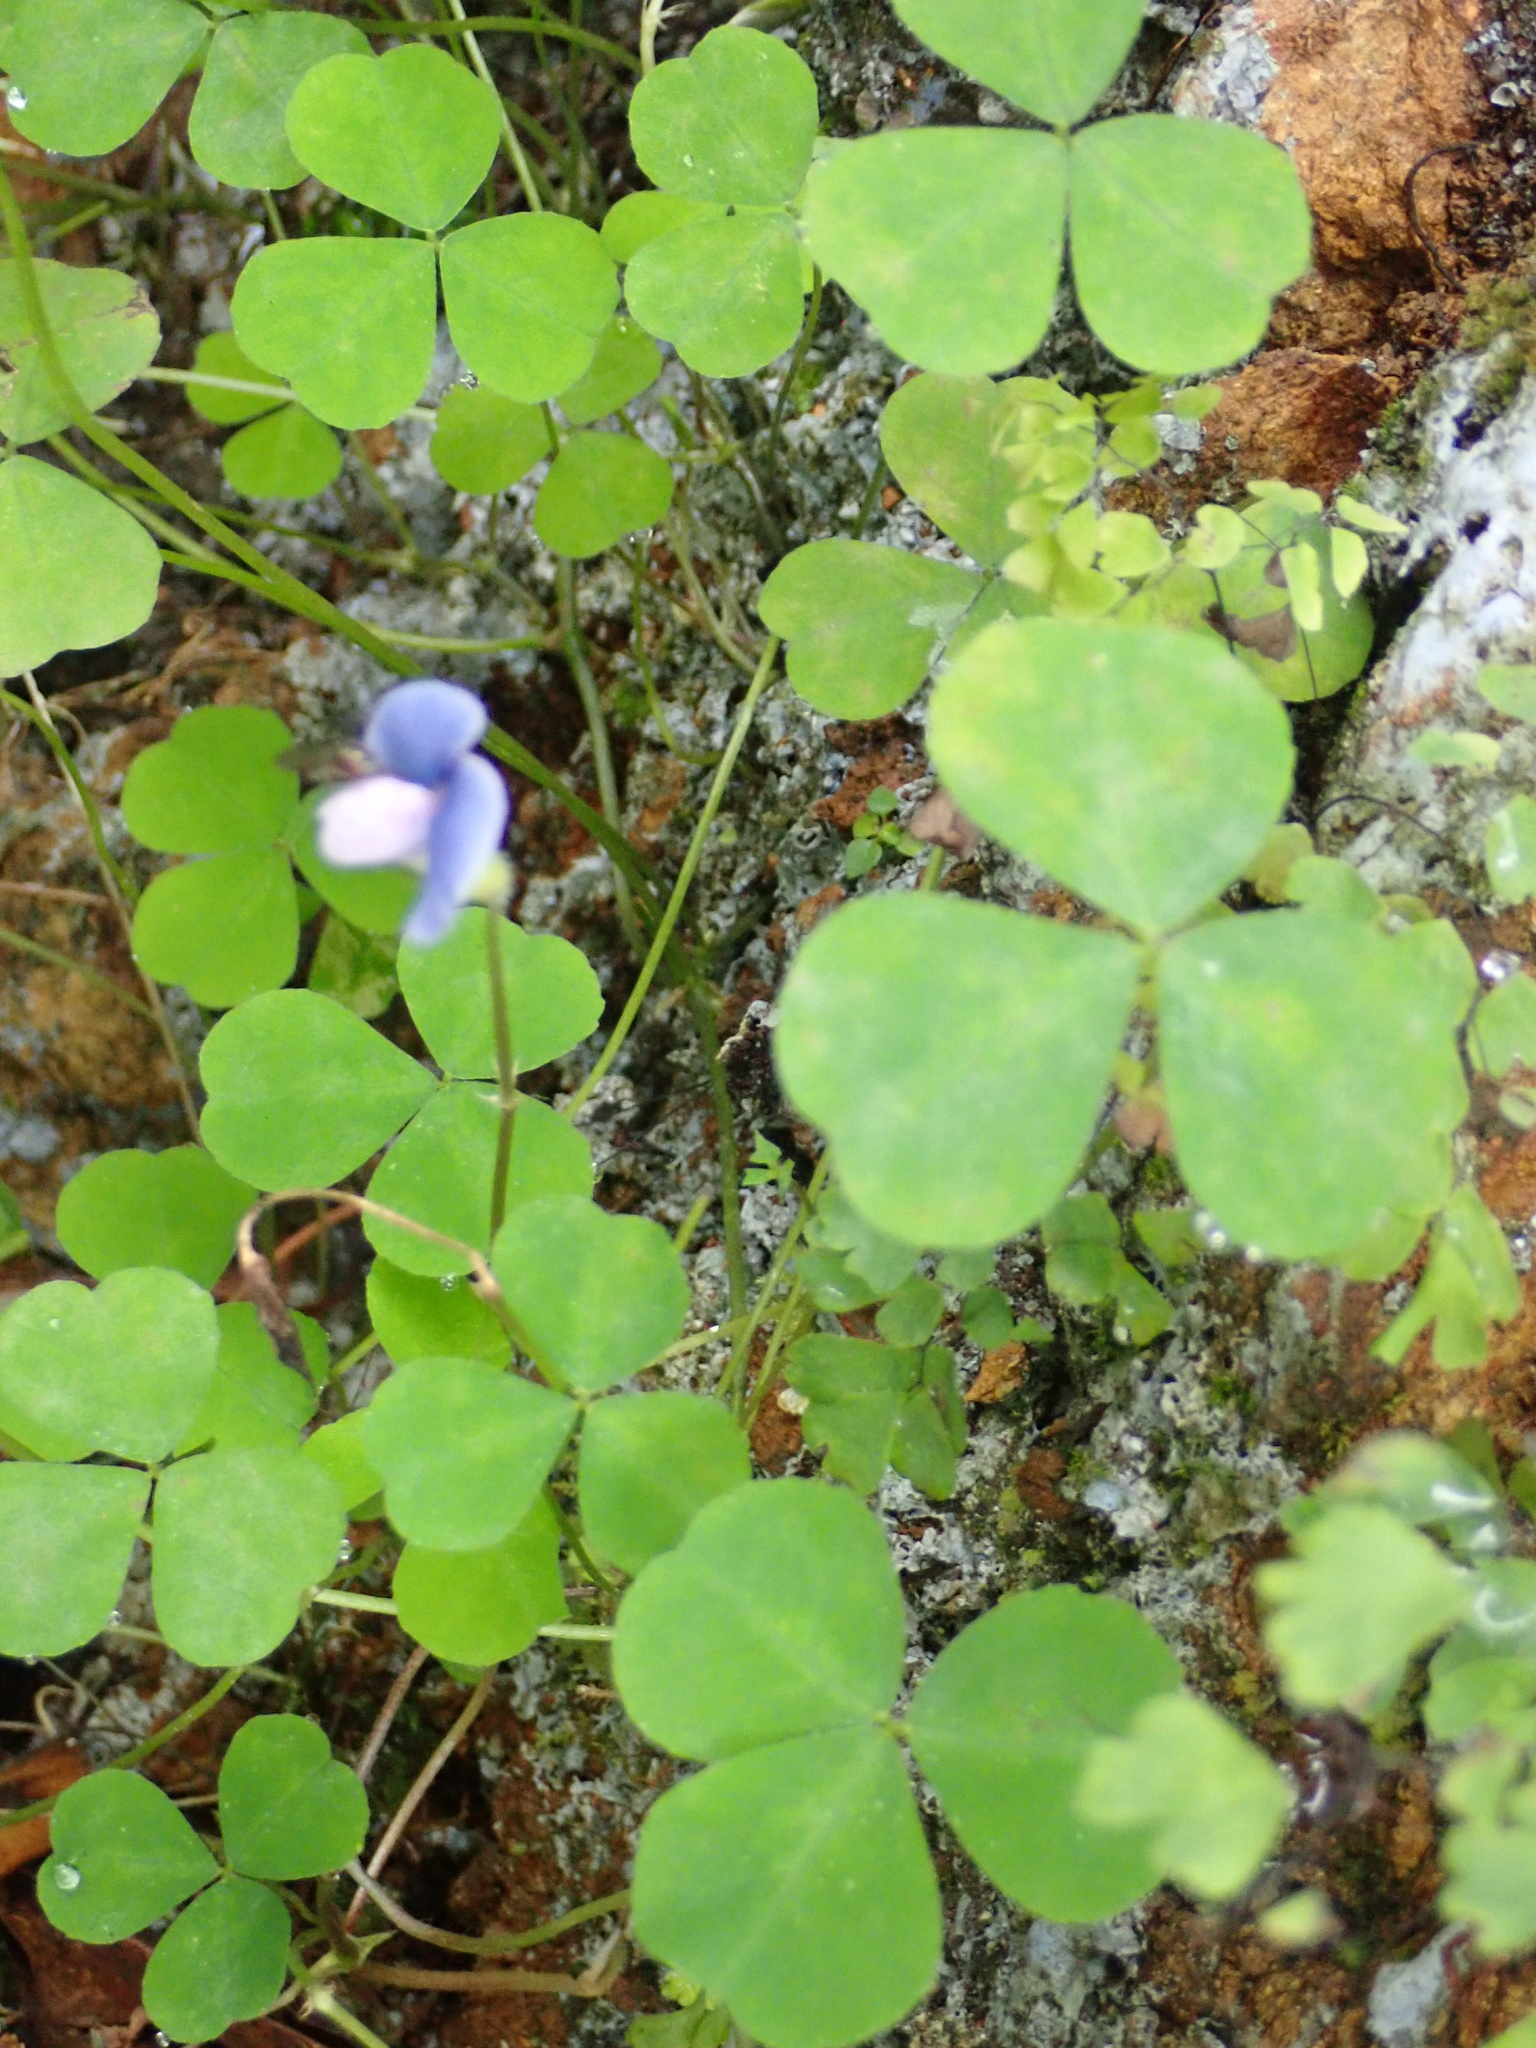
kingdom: Plantae
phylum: Tracheophyta
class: Magnoliopsida
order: Fabales
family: Fabaceae
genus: Parochetus
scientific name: Parochetus communis
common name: Blue oxalis
